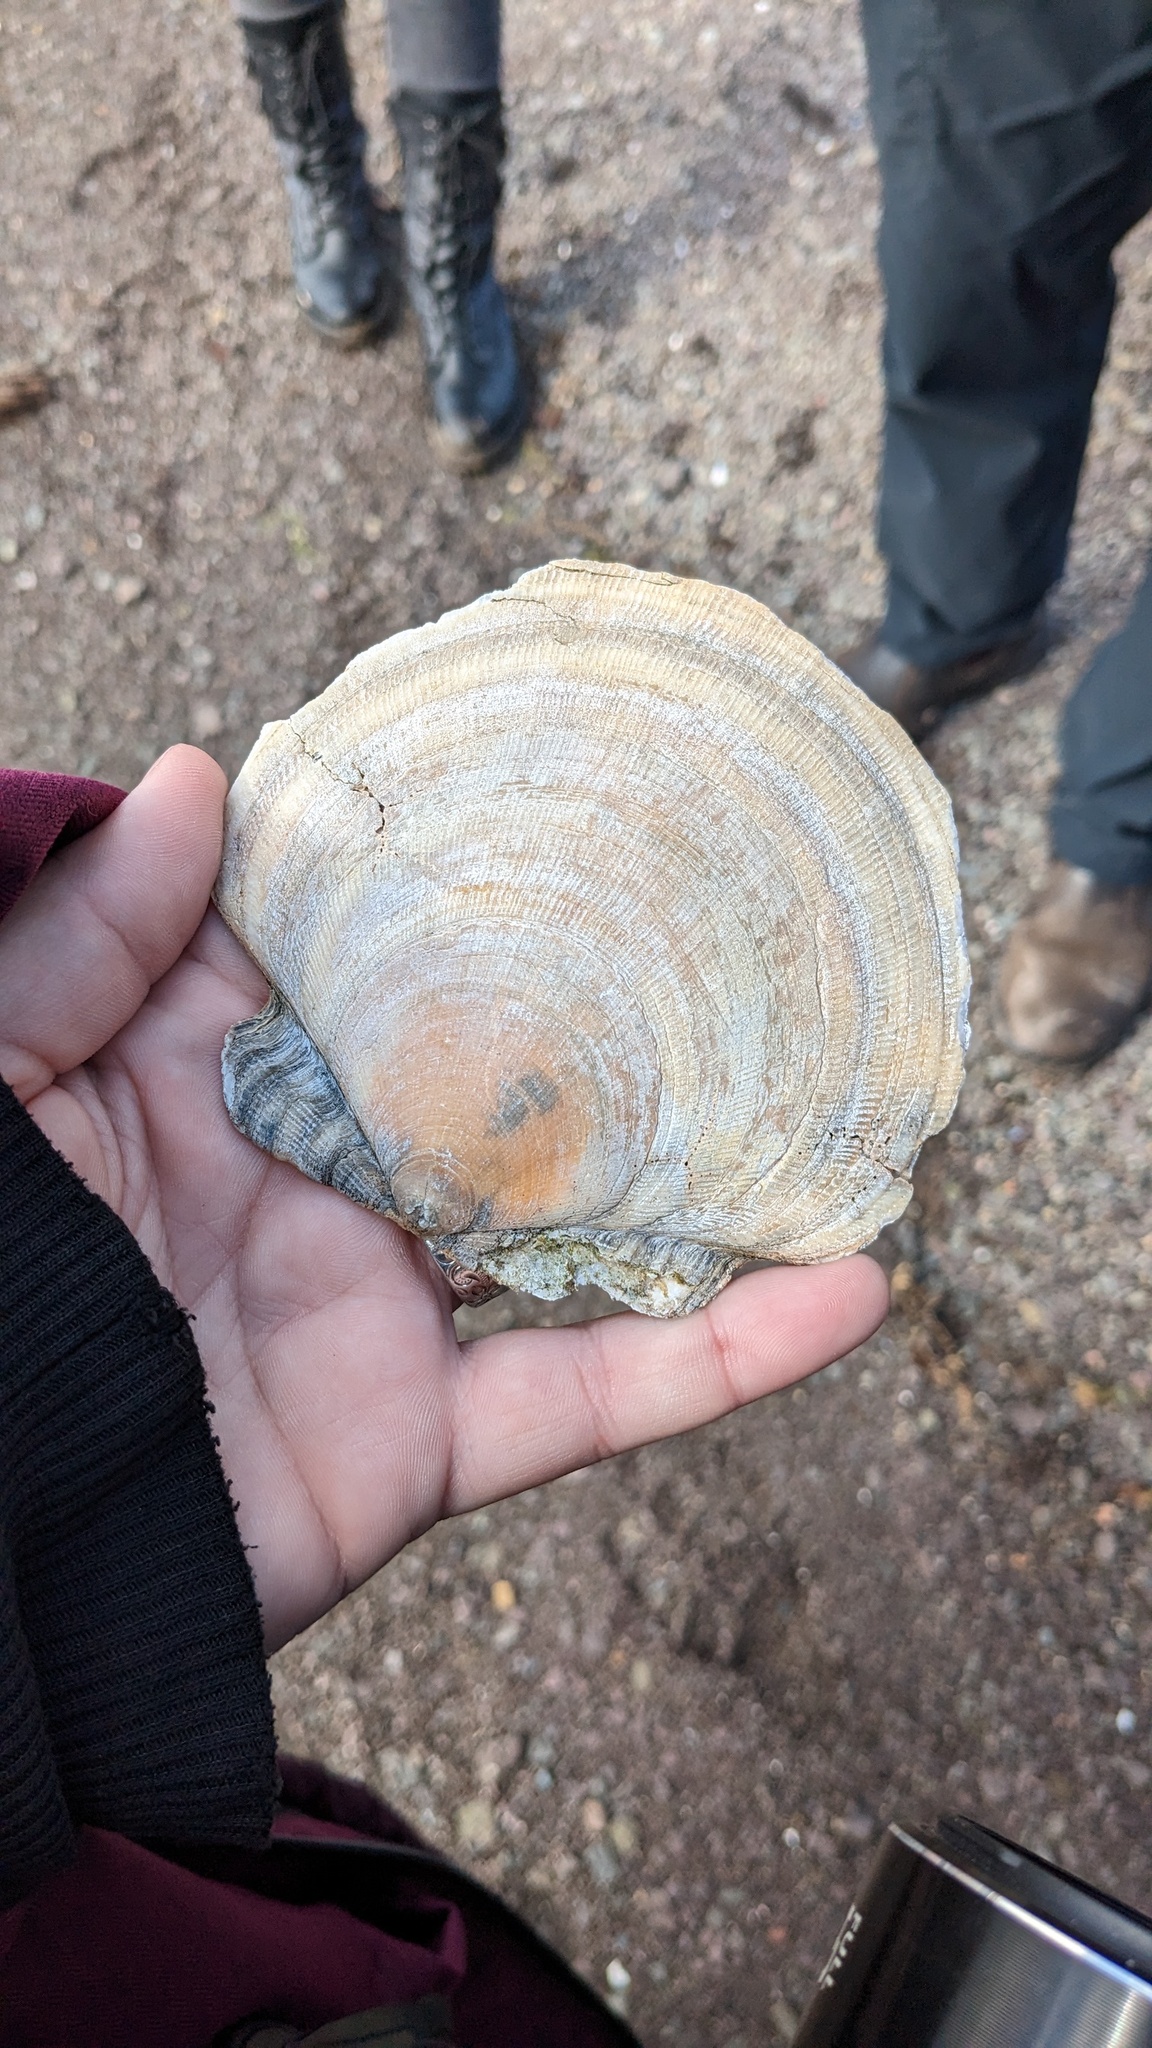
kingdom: Animalia
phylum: Mollusca
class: Bivalvia
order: Pectinida
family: Pectinidae
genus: Placopecten
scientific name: Placopecten magellanicus
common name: American sea scallop
